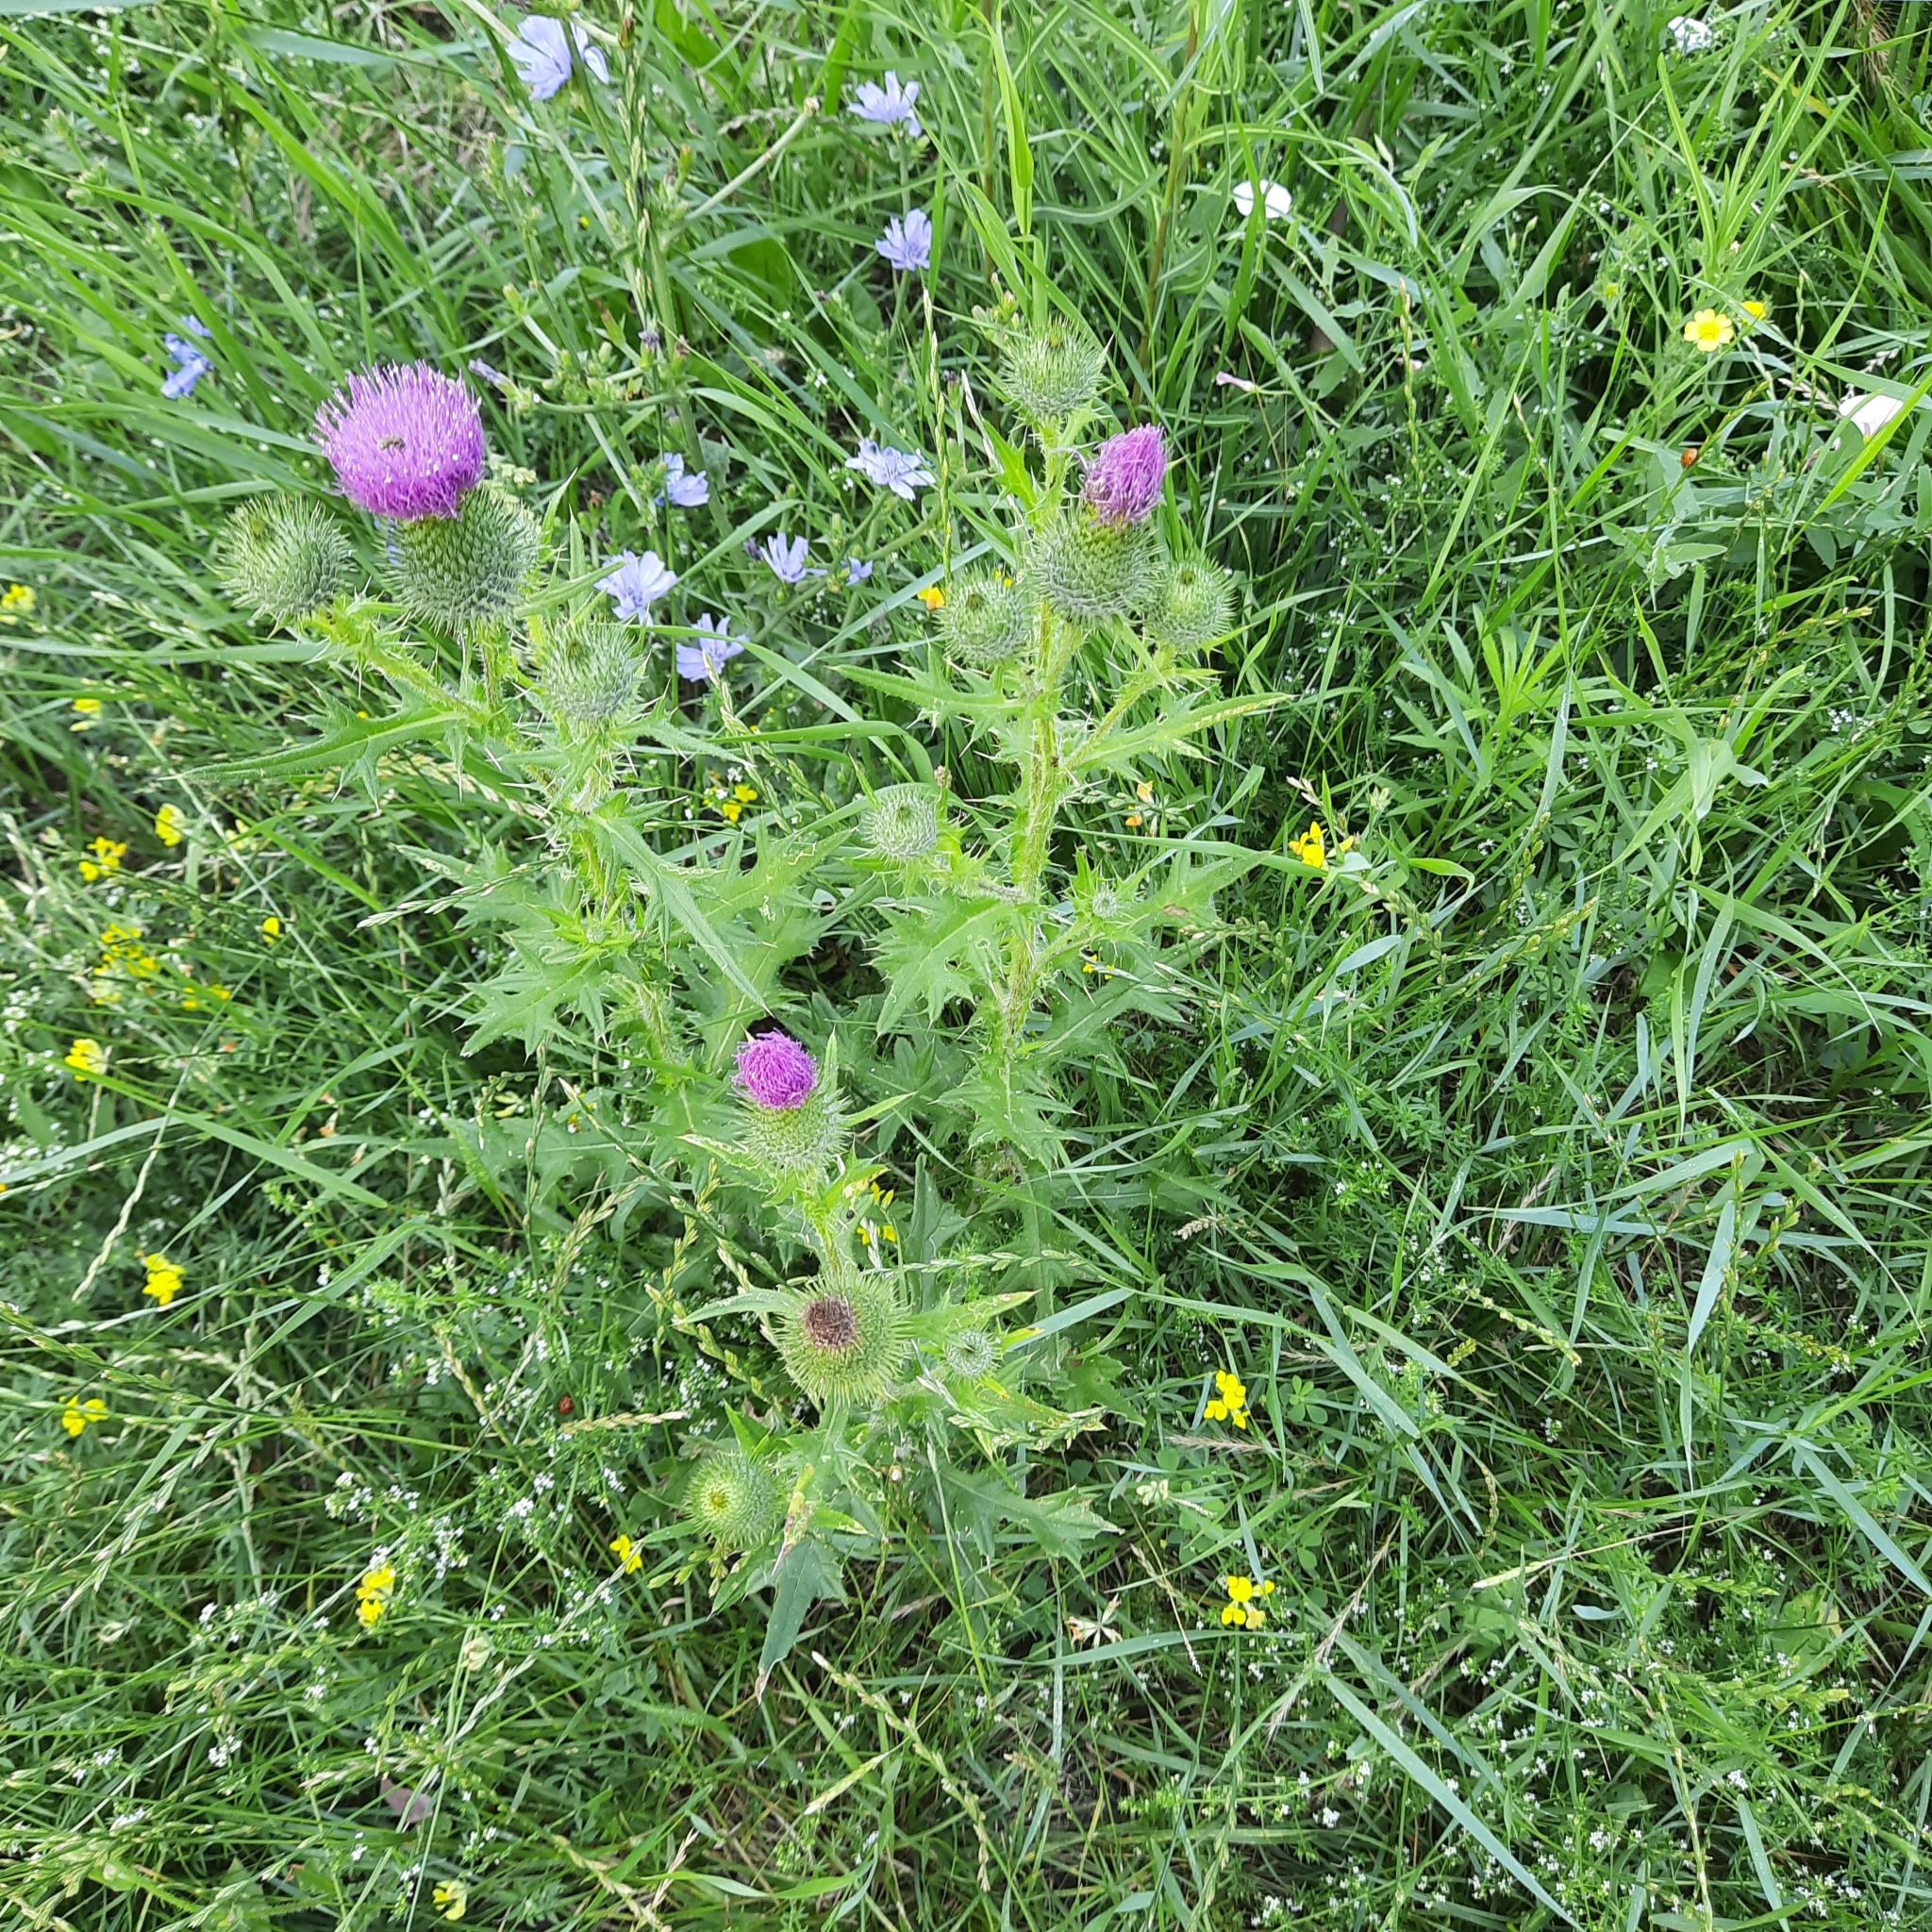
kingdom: Plantae
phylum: Tracheophyta
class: Magnoliopsida
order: Asterales
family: Asteraceae
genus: Cirsium
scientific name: Cirsium vulgare
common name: Bull thistle
